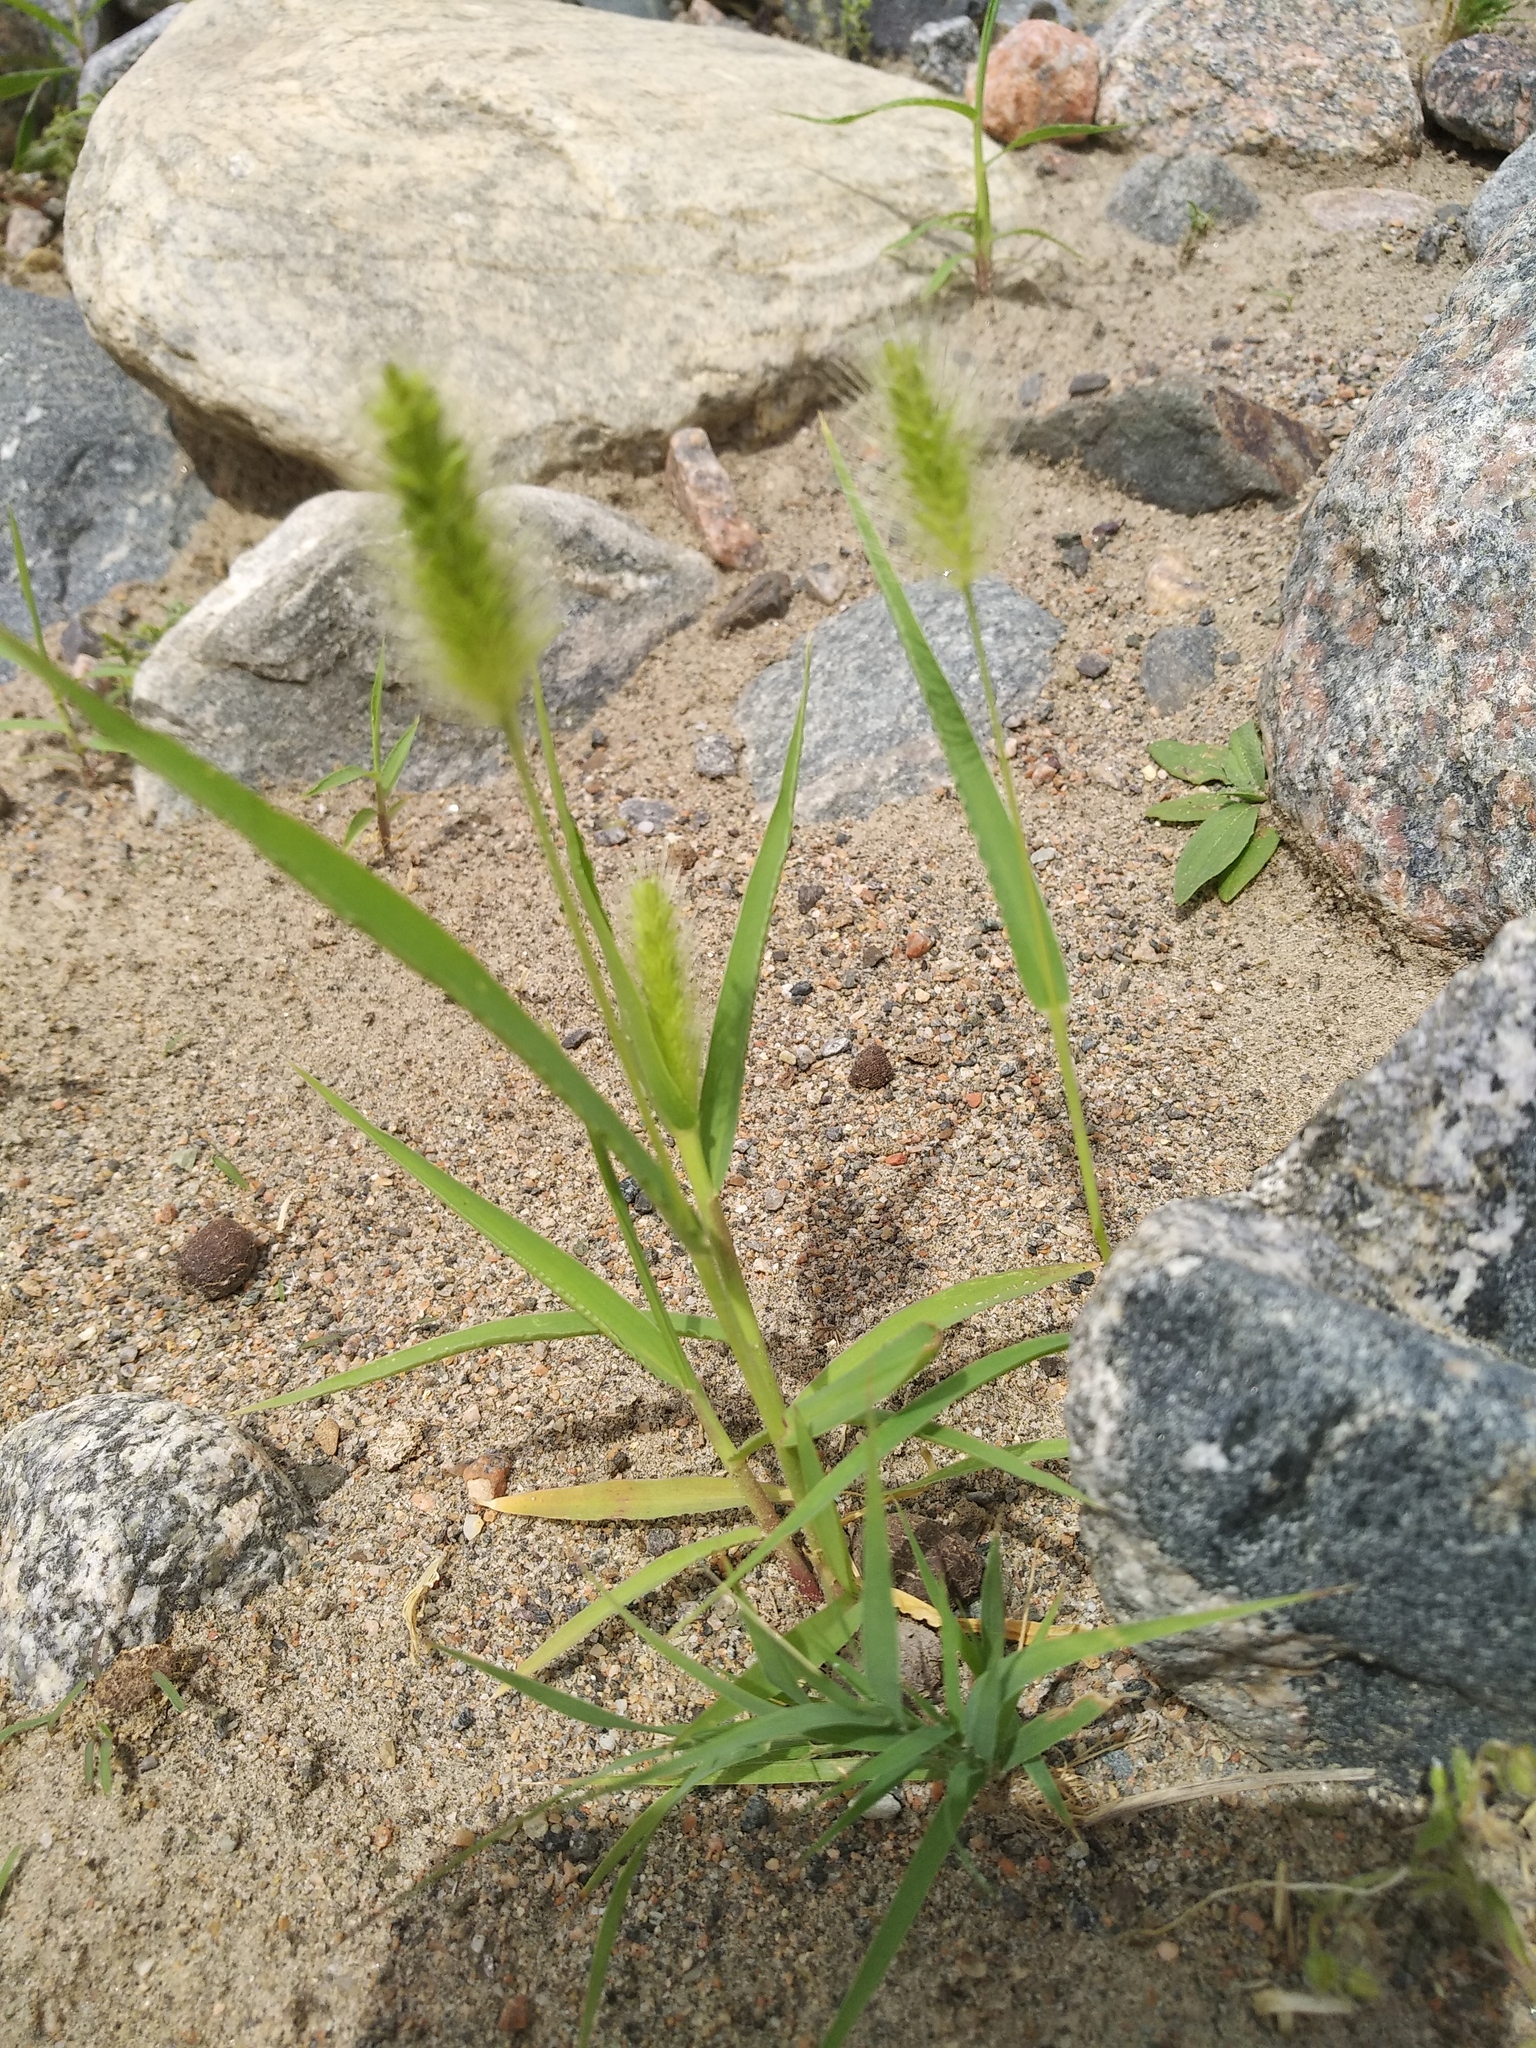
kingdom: Plantae
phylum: Tracheophyta
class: Liliopsida
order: Poales
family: Poaceae
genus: Setaria
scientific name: Setaria viridis
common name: Green bristlegrass
